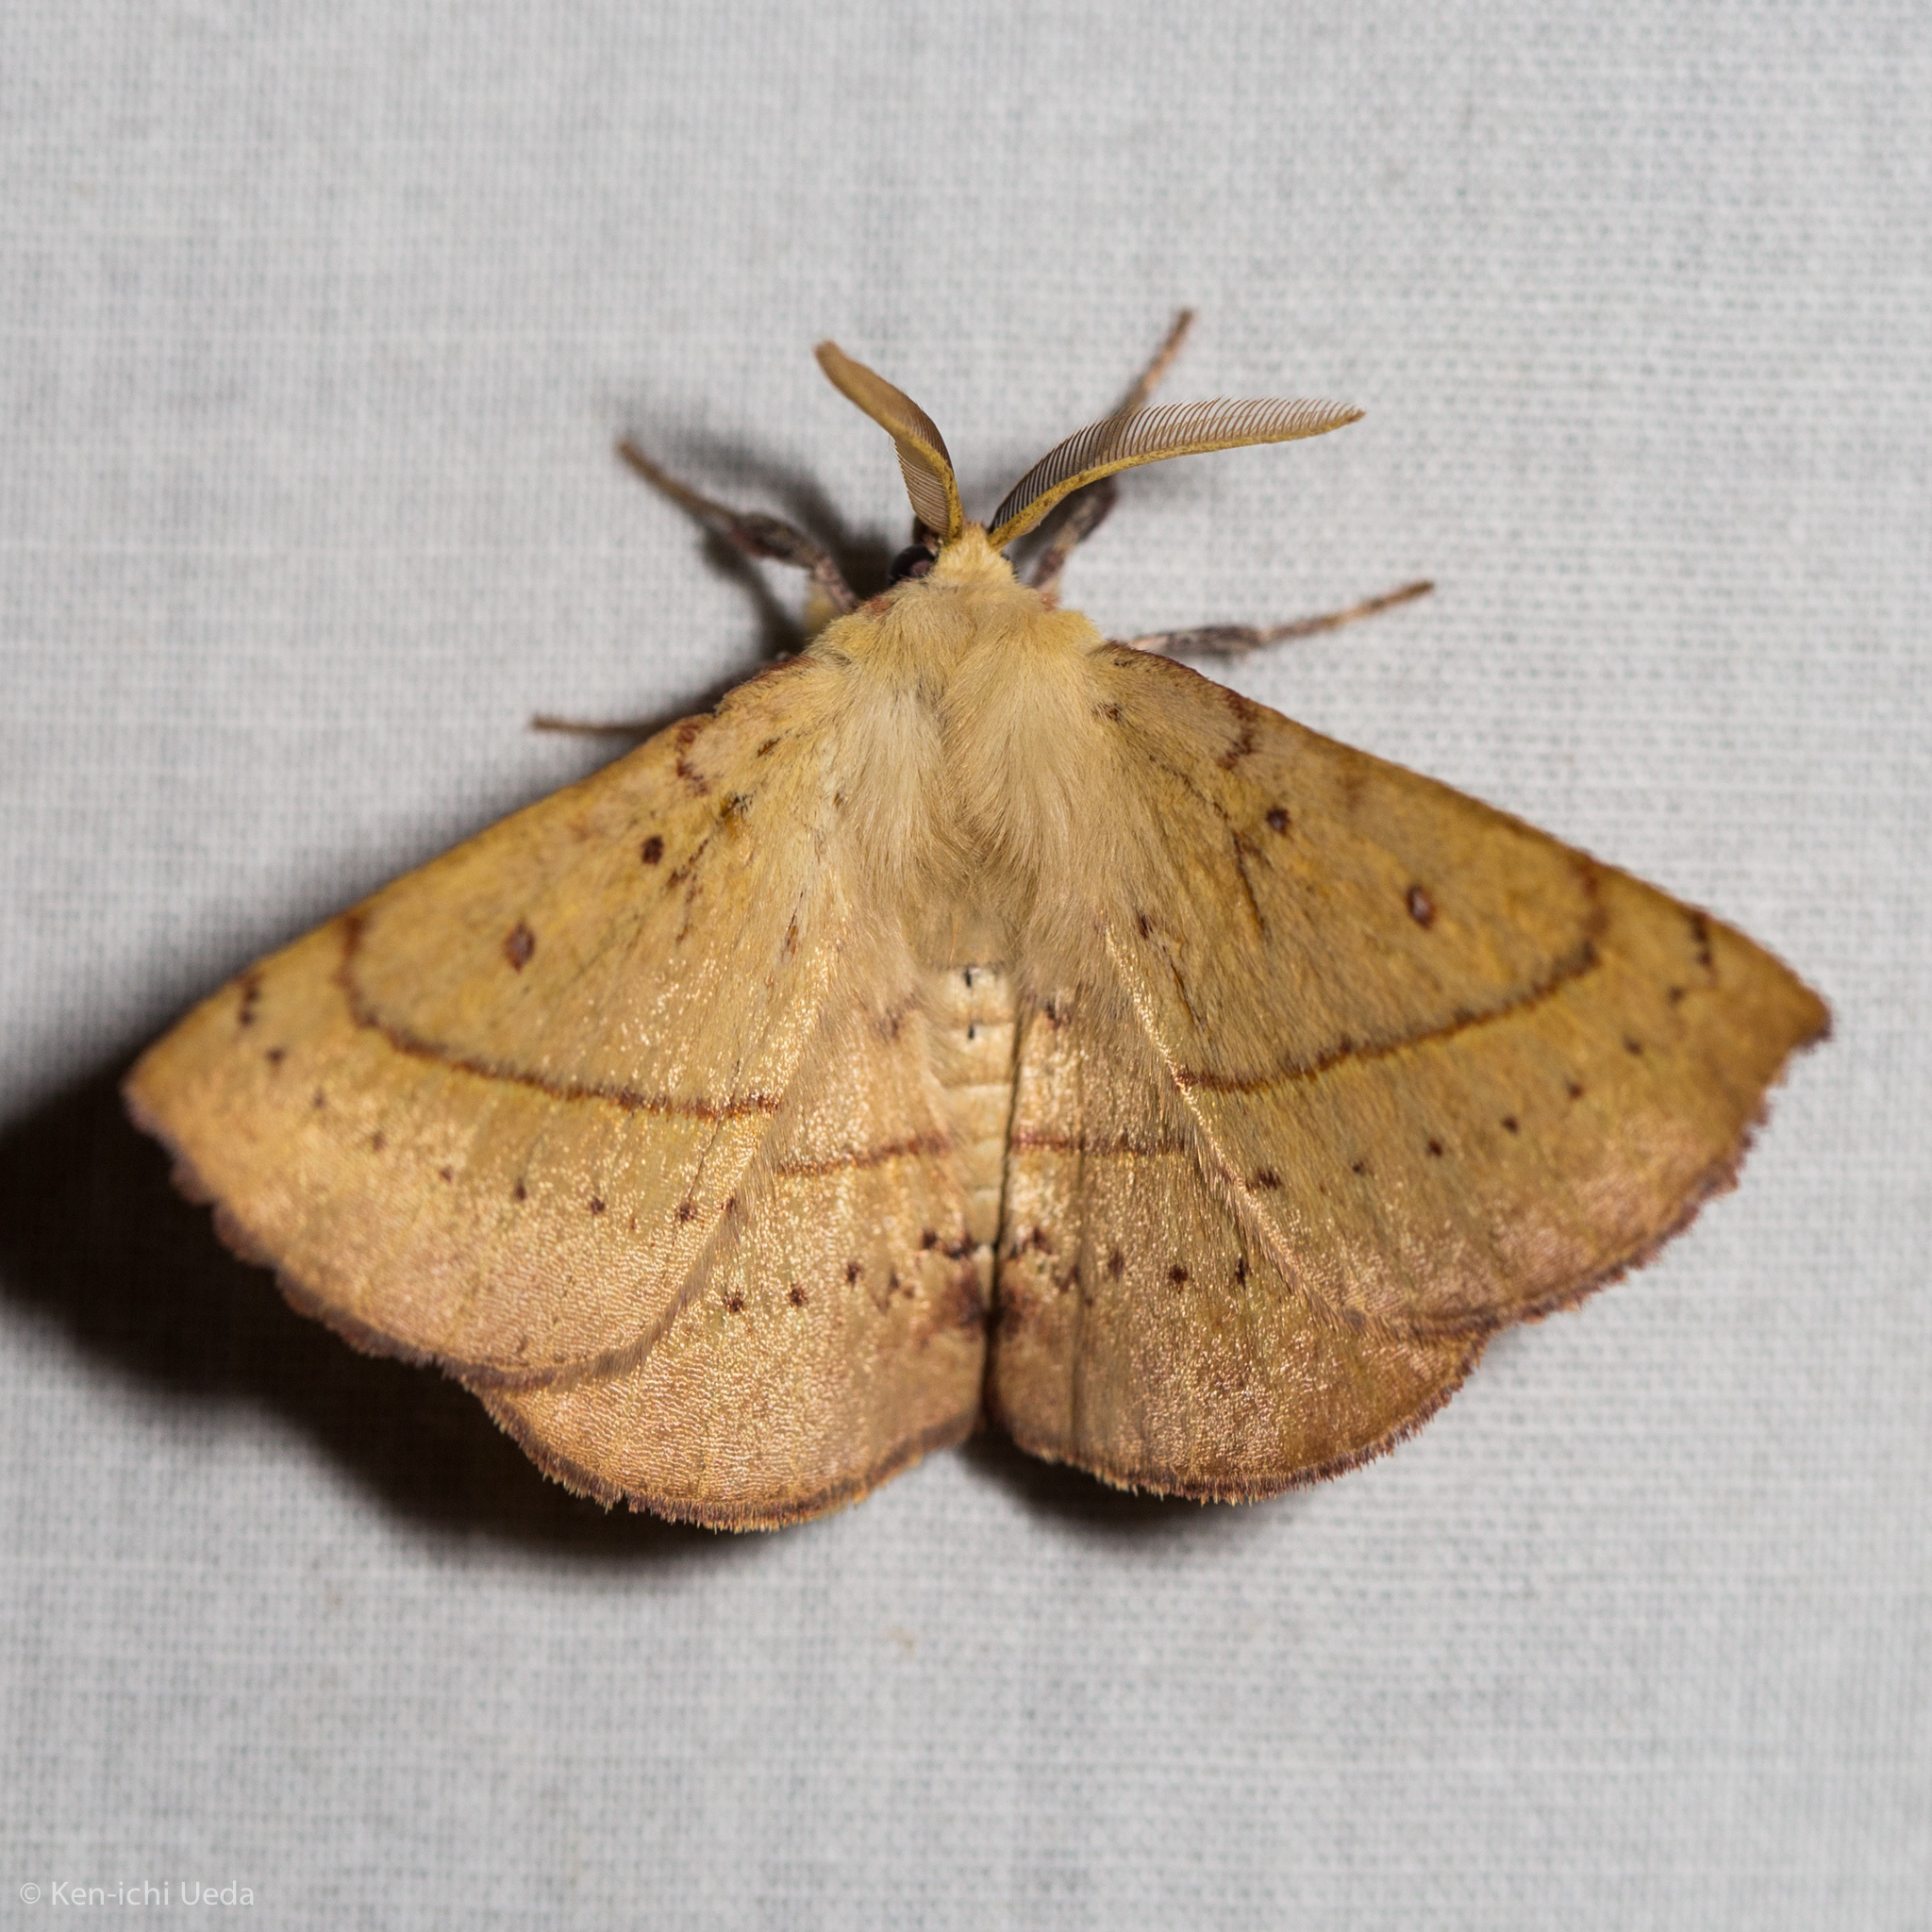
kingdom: Animalia
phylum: Arthropoda
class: Insecta
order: Lepidoptera
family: Anthelidae
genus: Anthela
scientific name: Anthela acuta
